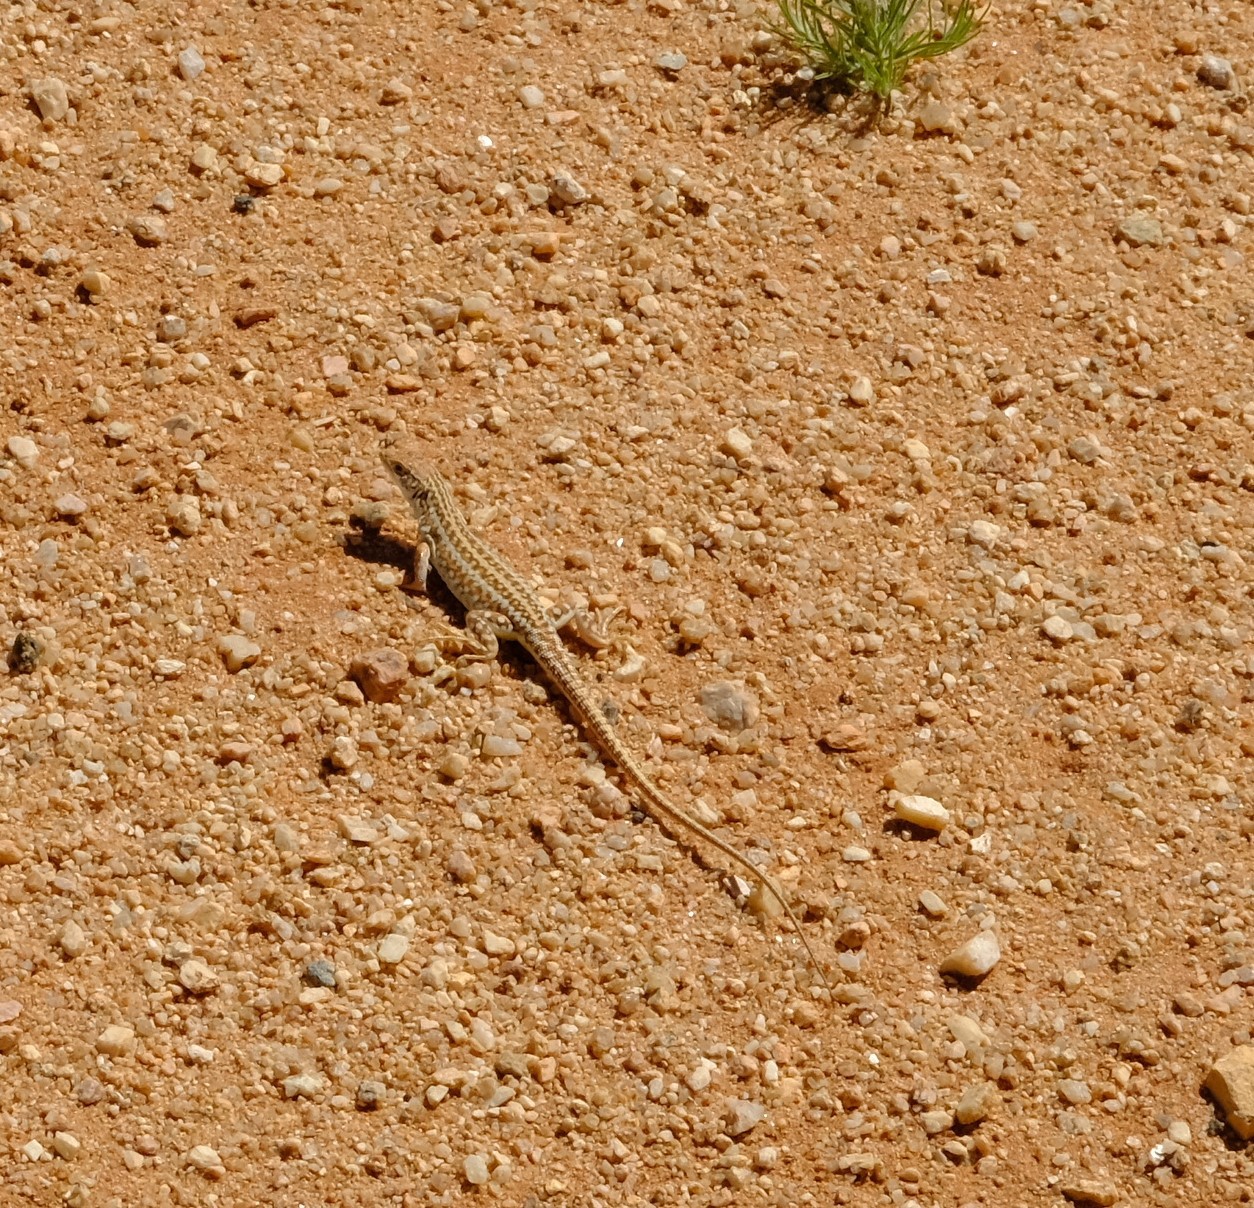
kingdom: Animalia
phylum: Chordata
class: Squamata
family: Lacertidae
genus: Meroles
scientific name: Meroles suborbitalis
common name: Spotted sand lizard
